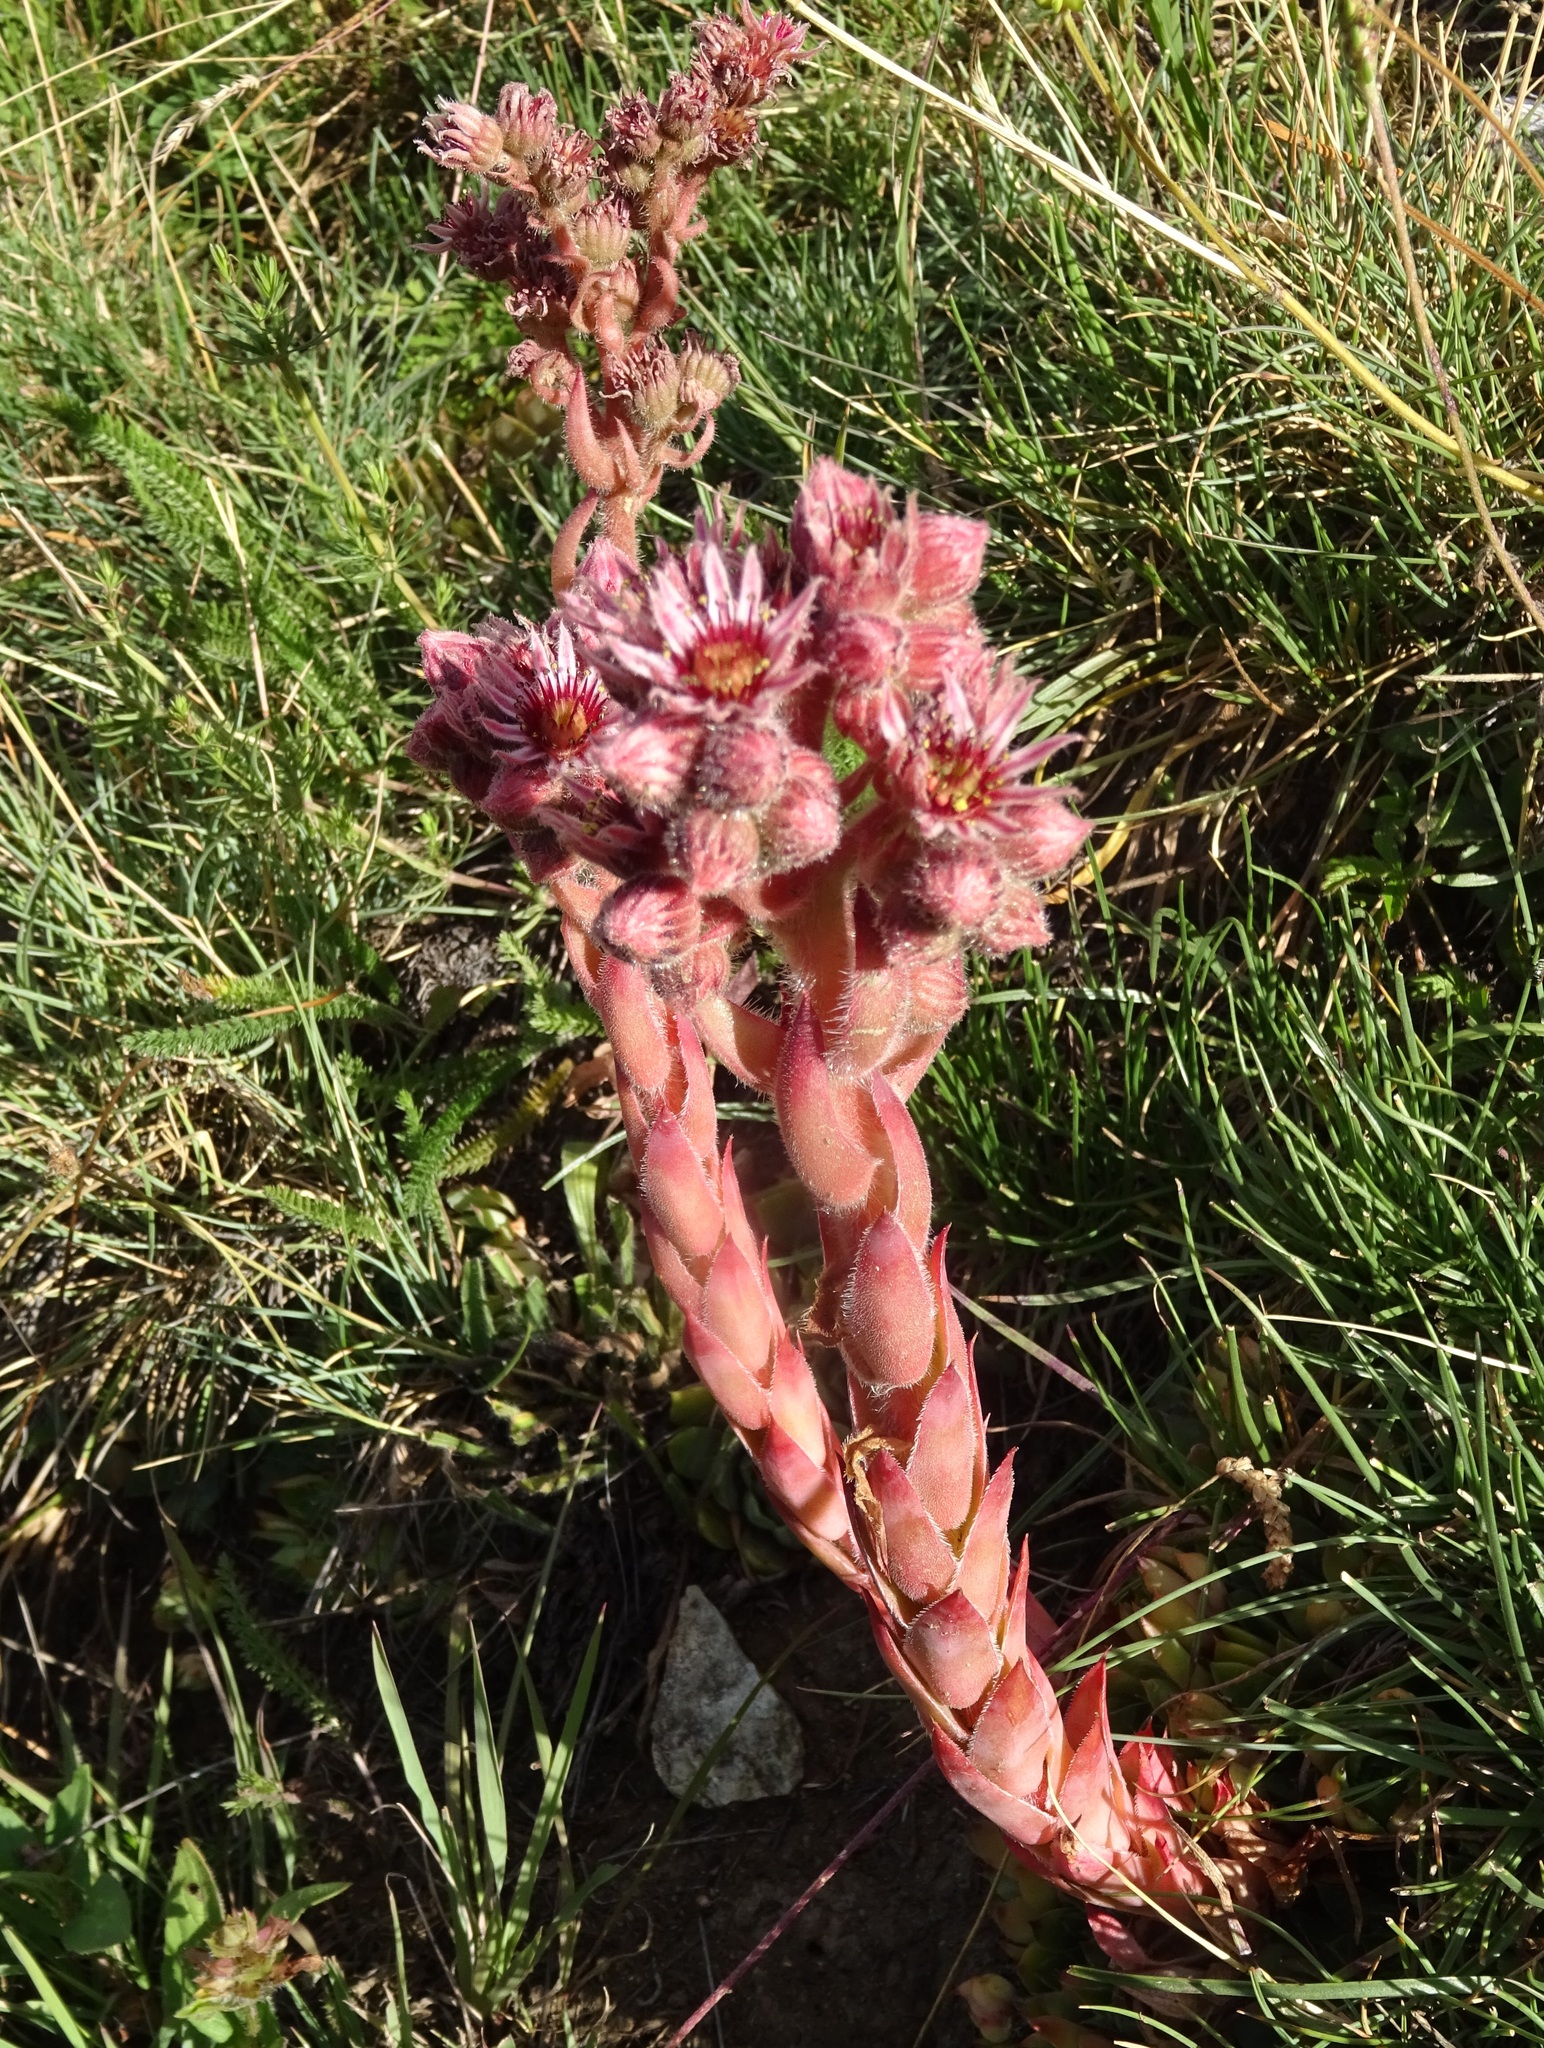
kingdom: Plantae
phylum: Tracheophyta
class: Magnoliopsida
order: Saxifragales
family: Crassulaceae
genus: Sempervivum
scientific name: Sempervivum tectorum
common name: House-leek
